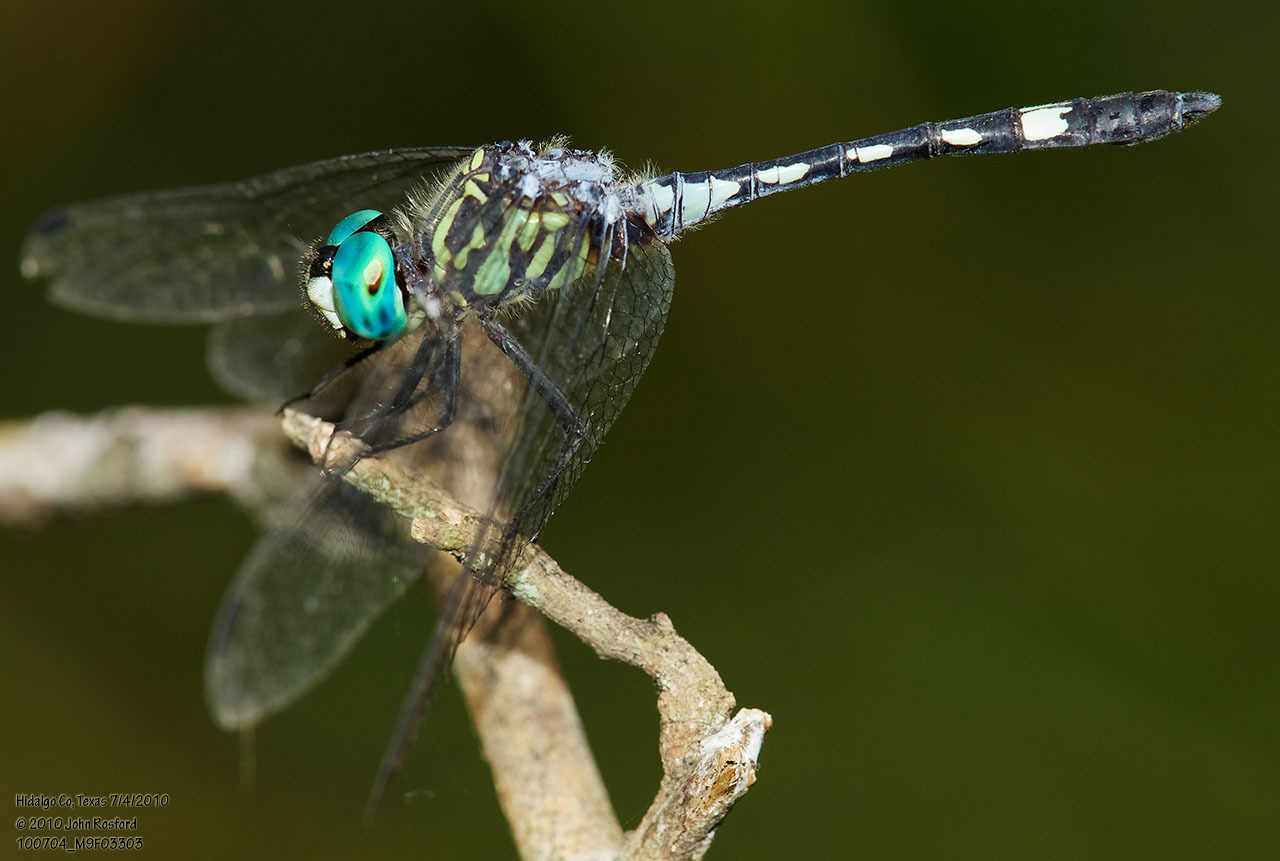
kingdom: Animalia
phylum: Arthropoda
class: Insecta
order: Odonata
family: Libellulidae
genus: Micrathyria
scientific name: Micrathyria hagenii
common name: Thornbush dasher
